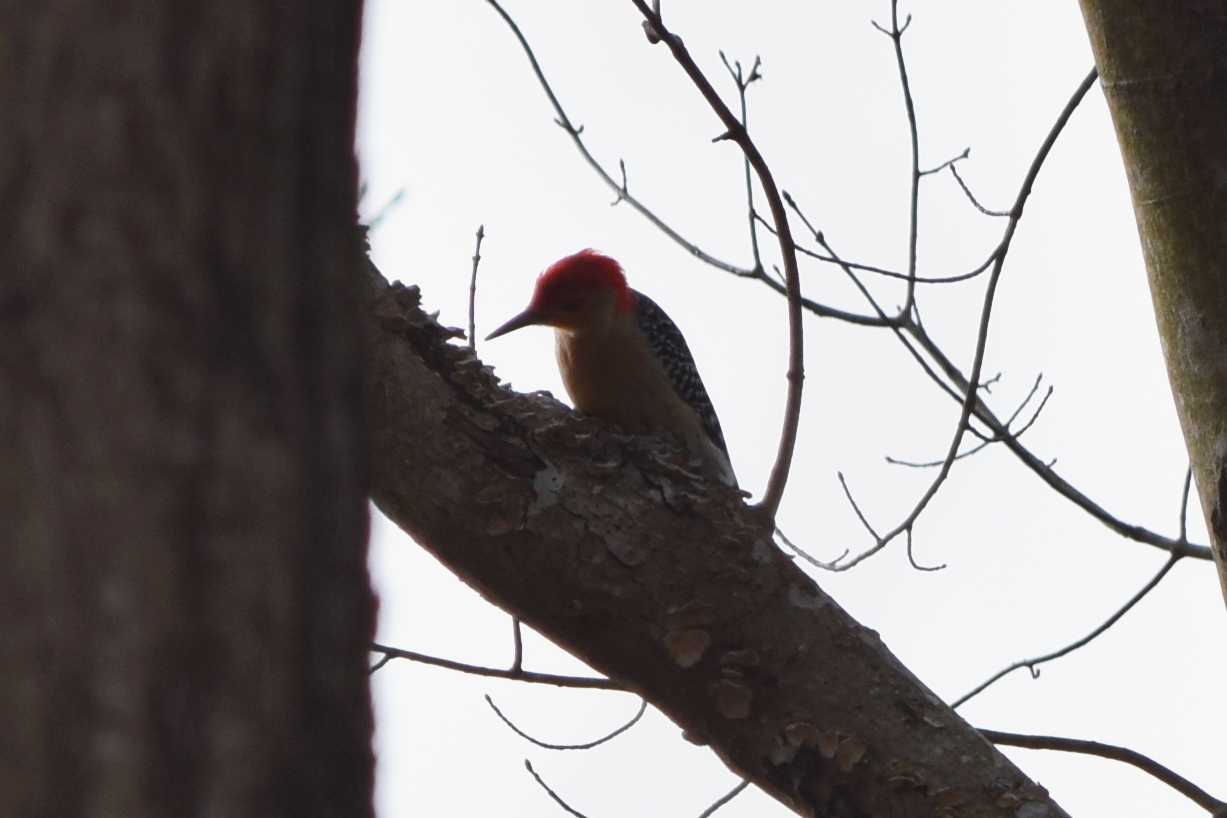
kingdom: Animalia
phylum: Chordata
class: Aves
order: Piciformes
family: Picidae
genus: Melanerpes
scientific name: Melanerpes carolinus
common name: Red-bellied woodpecker
